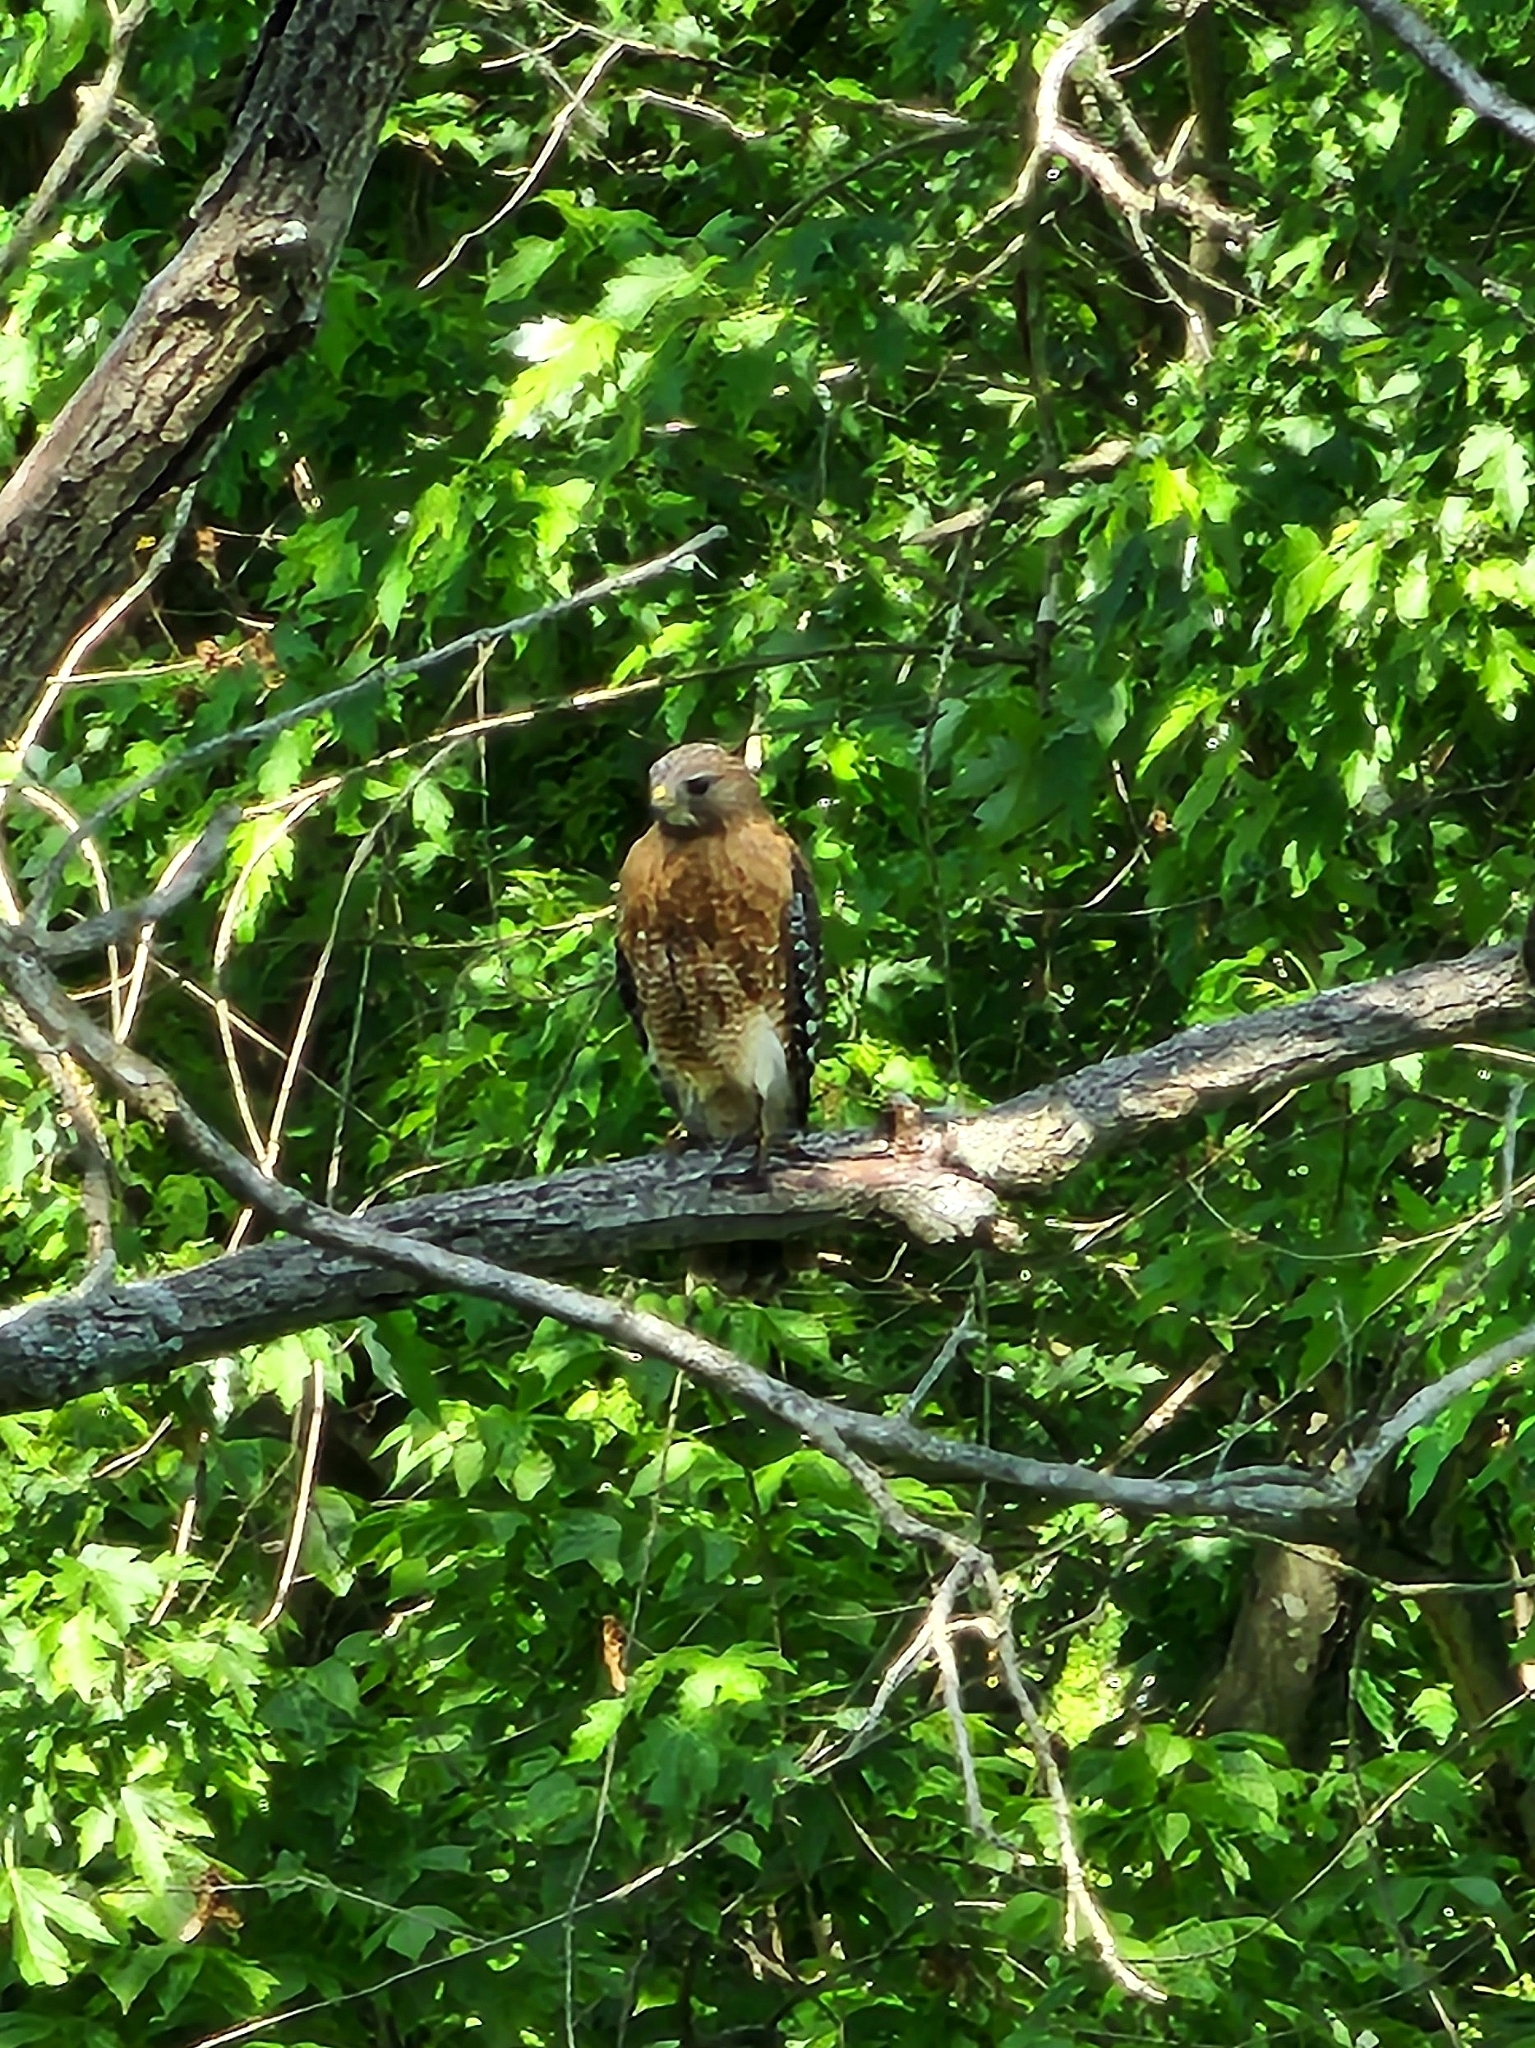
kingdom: Animalia
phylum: Chordata
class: Aves
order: Accipitriformes
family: Accipitridae
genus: Buteo
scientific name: Buteo lineatus
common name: Red-shouldered hawk
